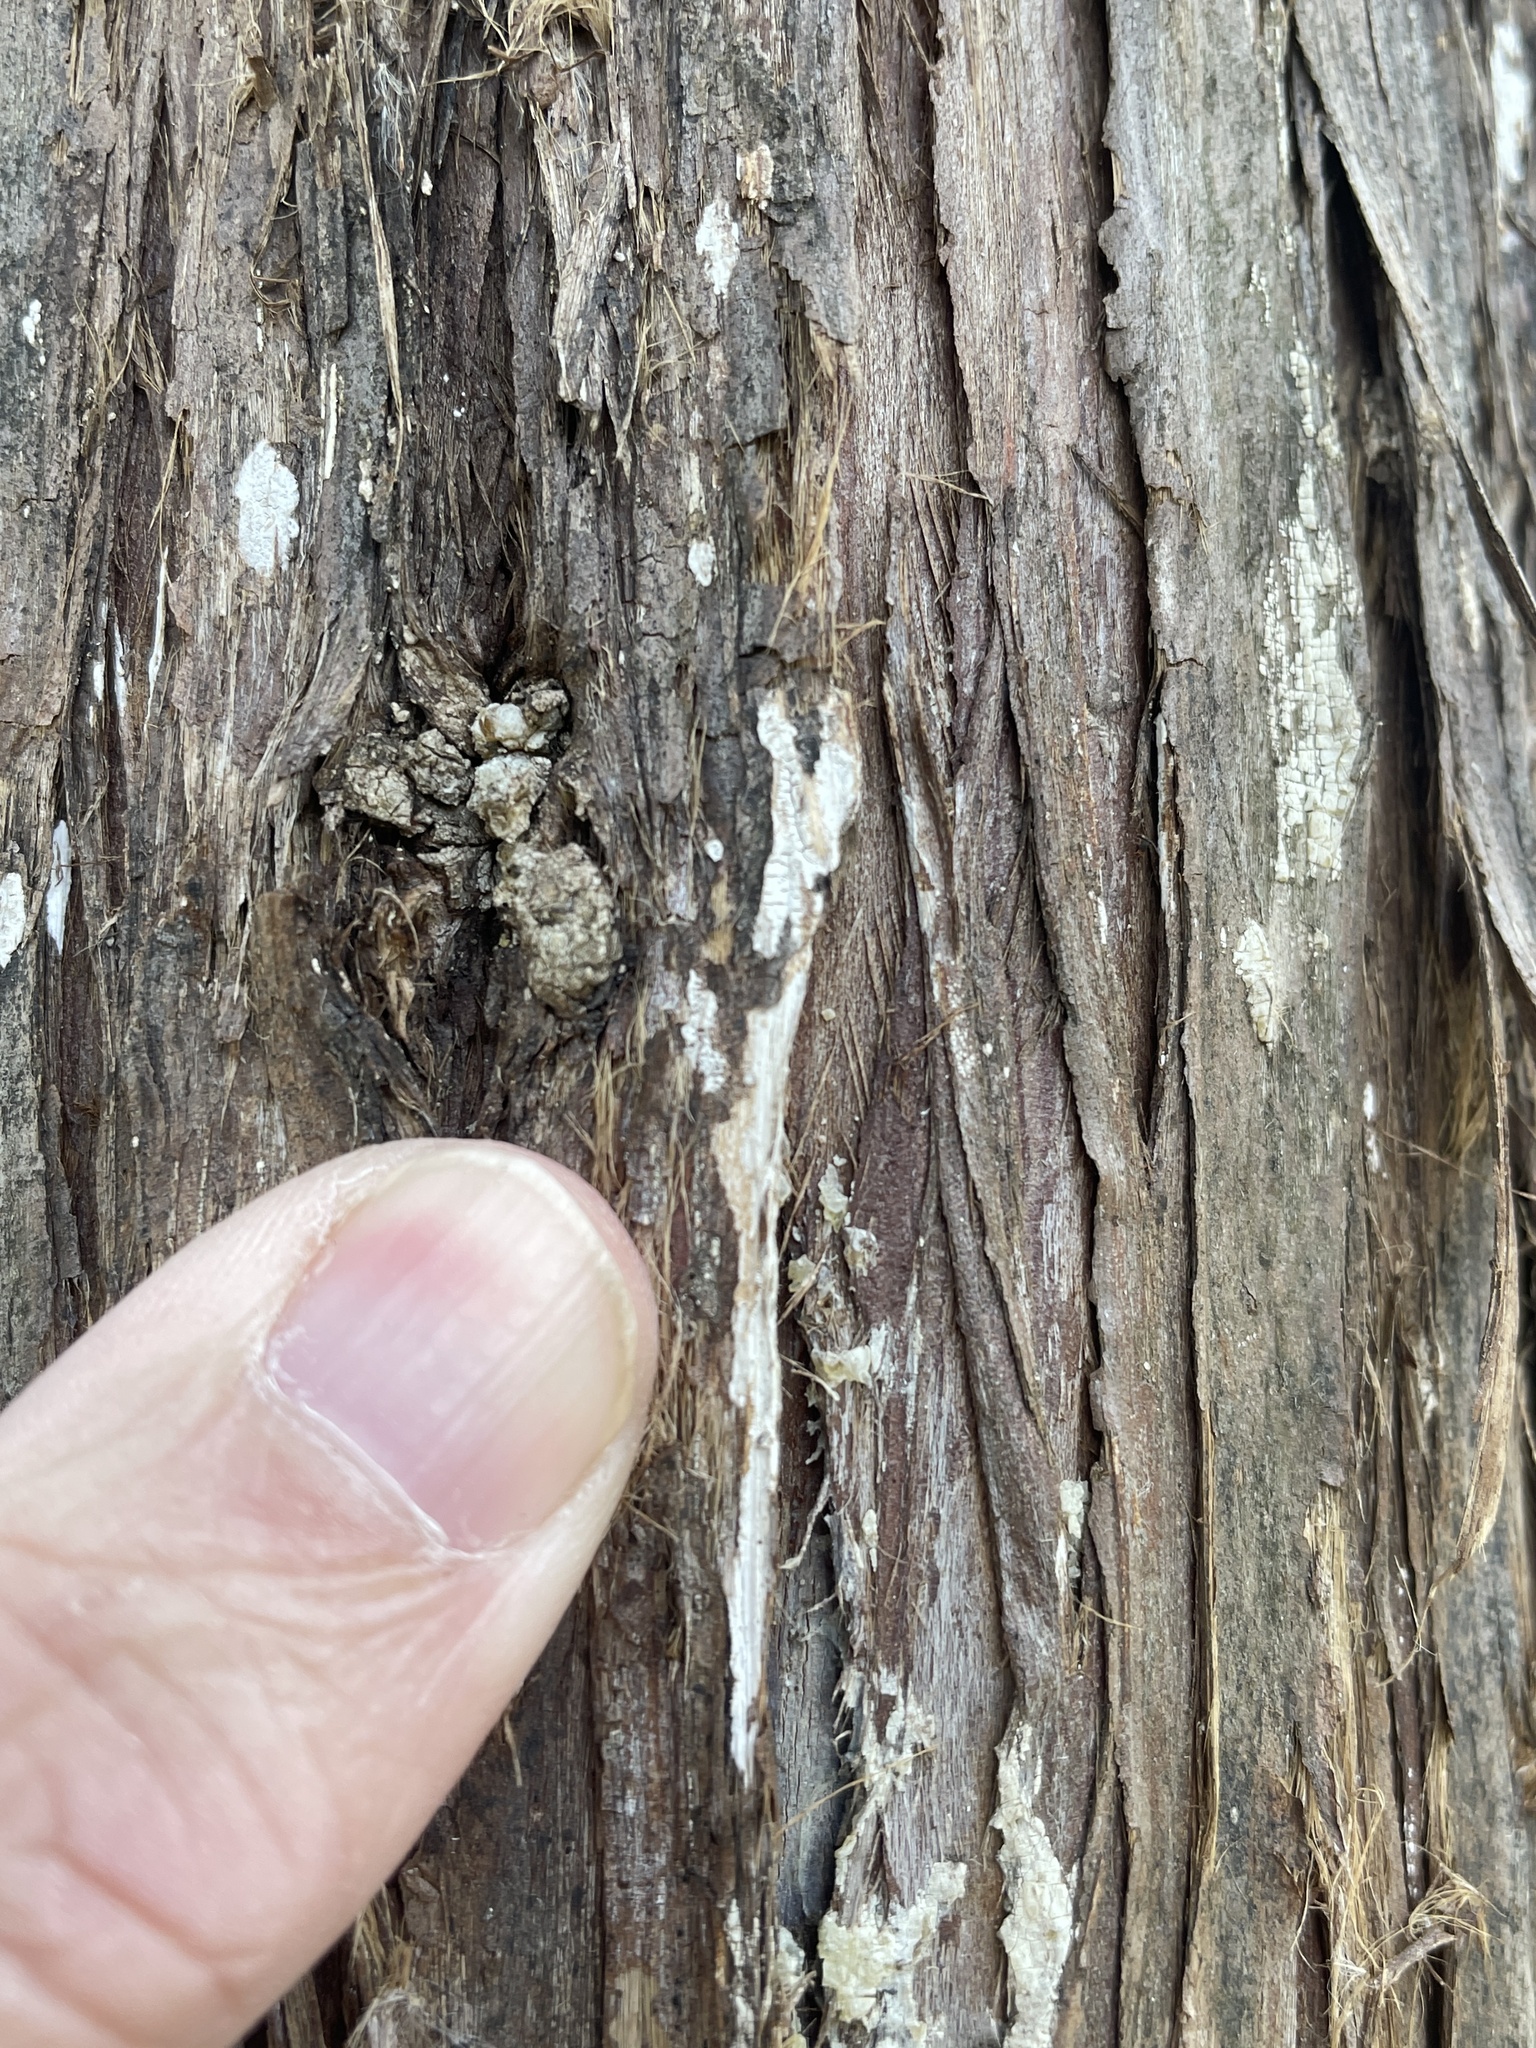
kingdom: Fungi
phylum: Basidiomycota
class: Agaricomycetes
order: Agaricales
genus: Dendrothele
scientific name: Dendrothele nivosa
